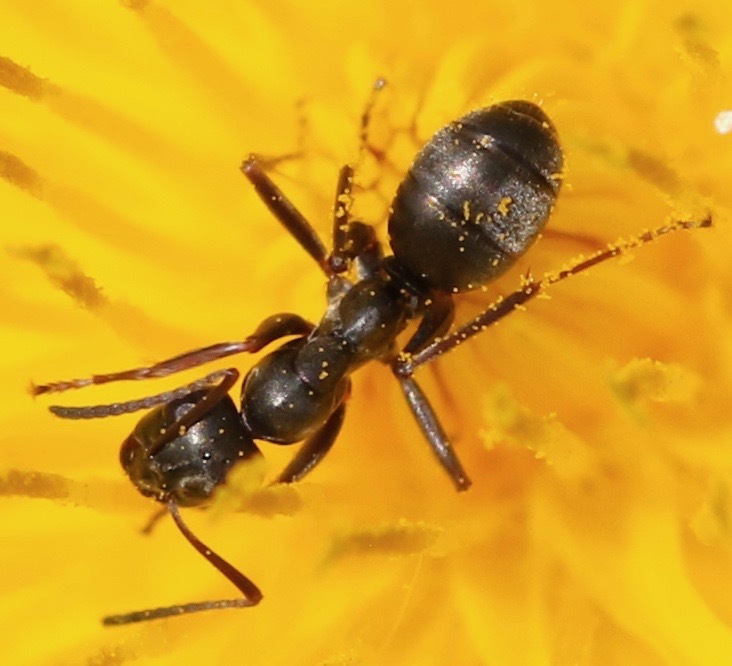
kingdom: Animalia
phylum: Arthropoda
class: Insecta
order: Hymenoptera
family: Formicidae
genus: Formica
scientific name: Formica fusca
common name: Silky ant
